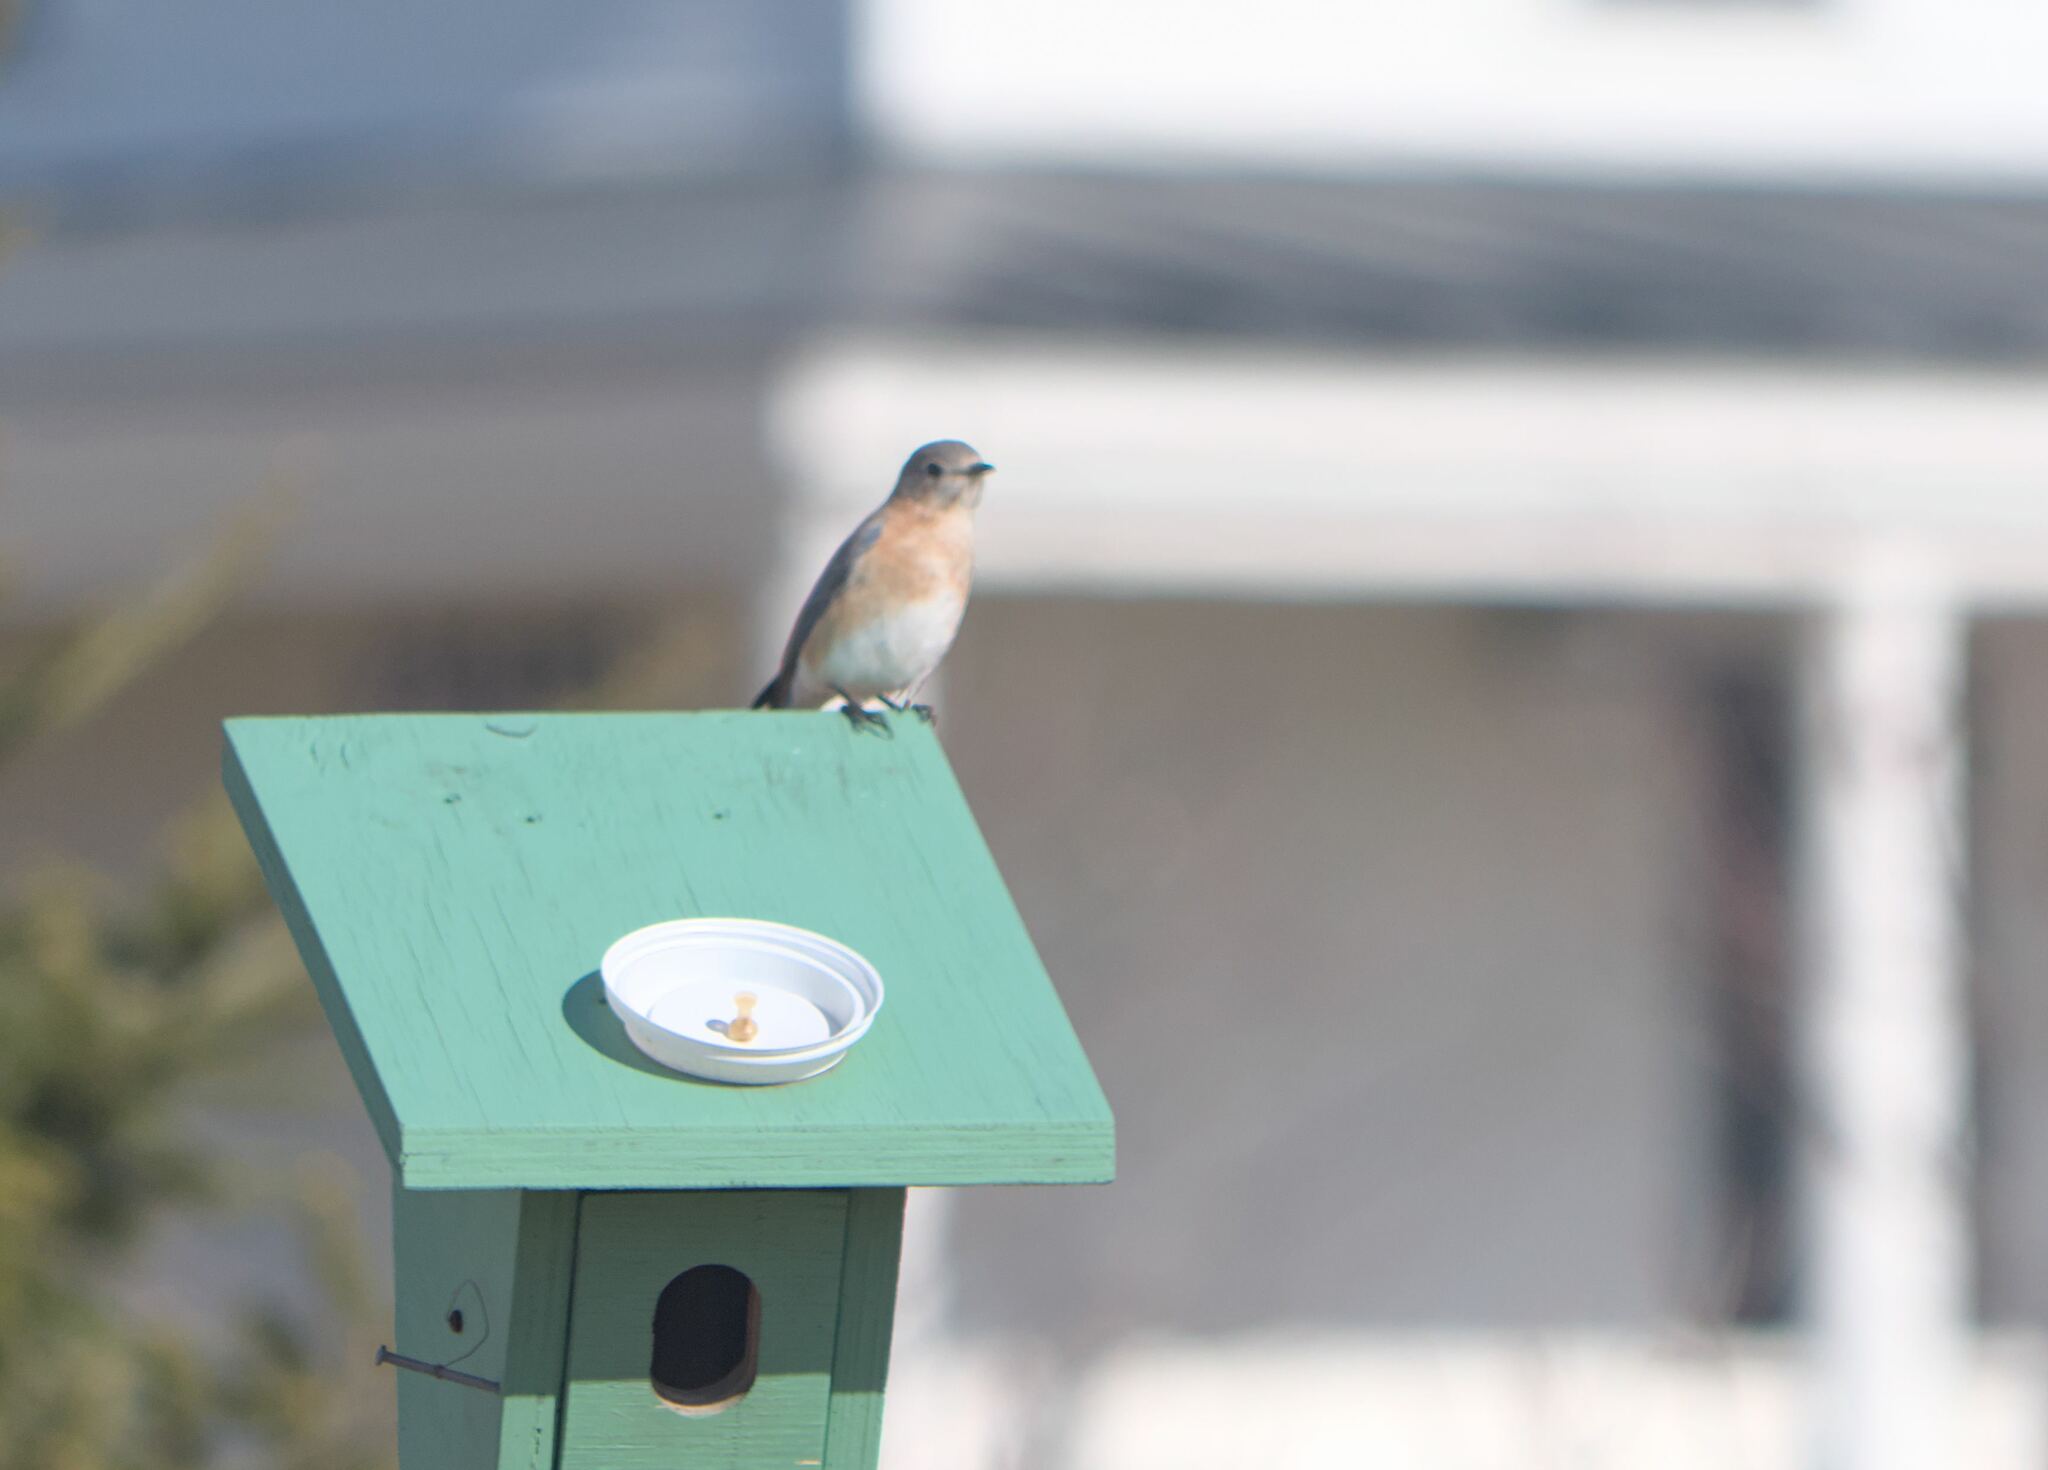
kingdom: Animalia
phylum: Chordata
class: Aves
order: Passeriformes
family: Turdidae
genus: Sialia
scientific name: Sialia sialis
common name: Eastern bluebird
